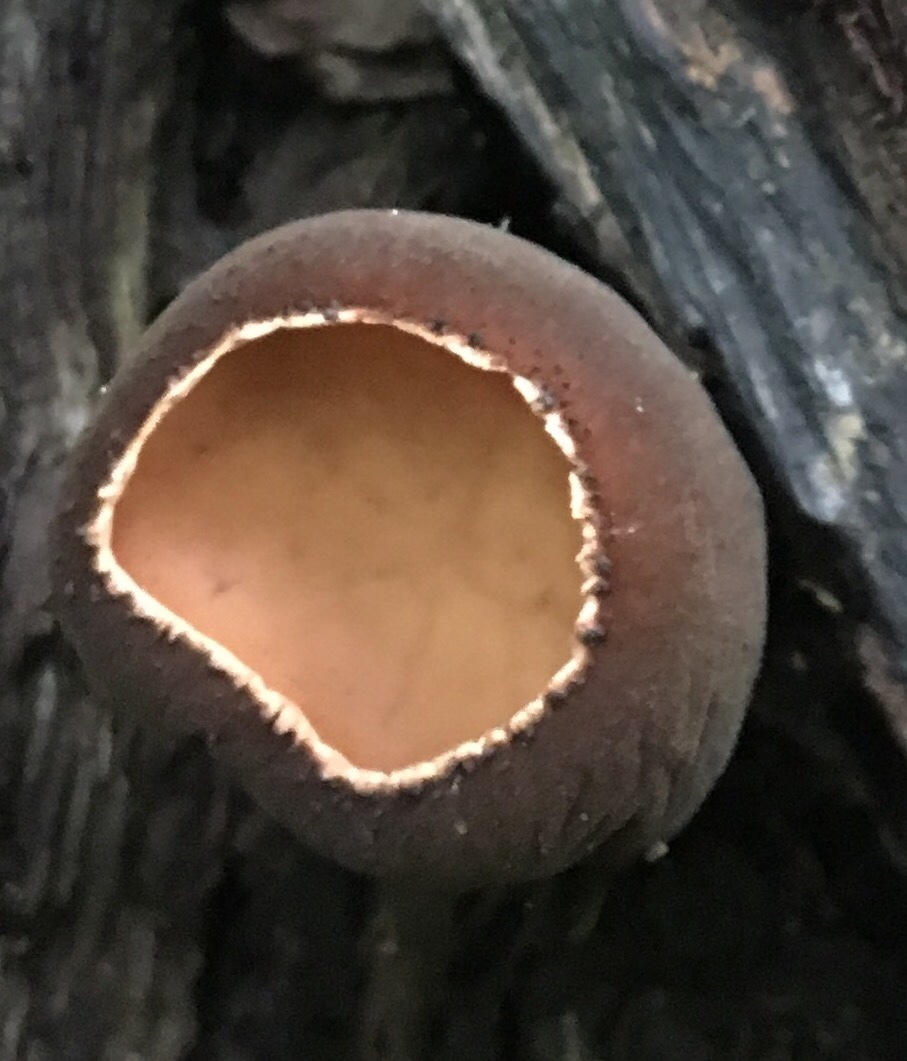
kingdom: Fungi
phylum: Ascomycota
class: Pezizomycetes
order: Pezizales
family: Sarcosomataceae
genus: Galiella
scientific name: Galiella rufa
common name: Hairy rubber cup
